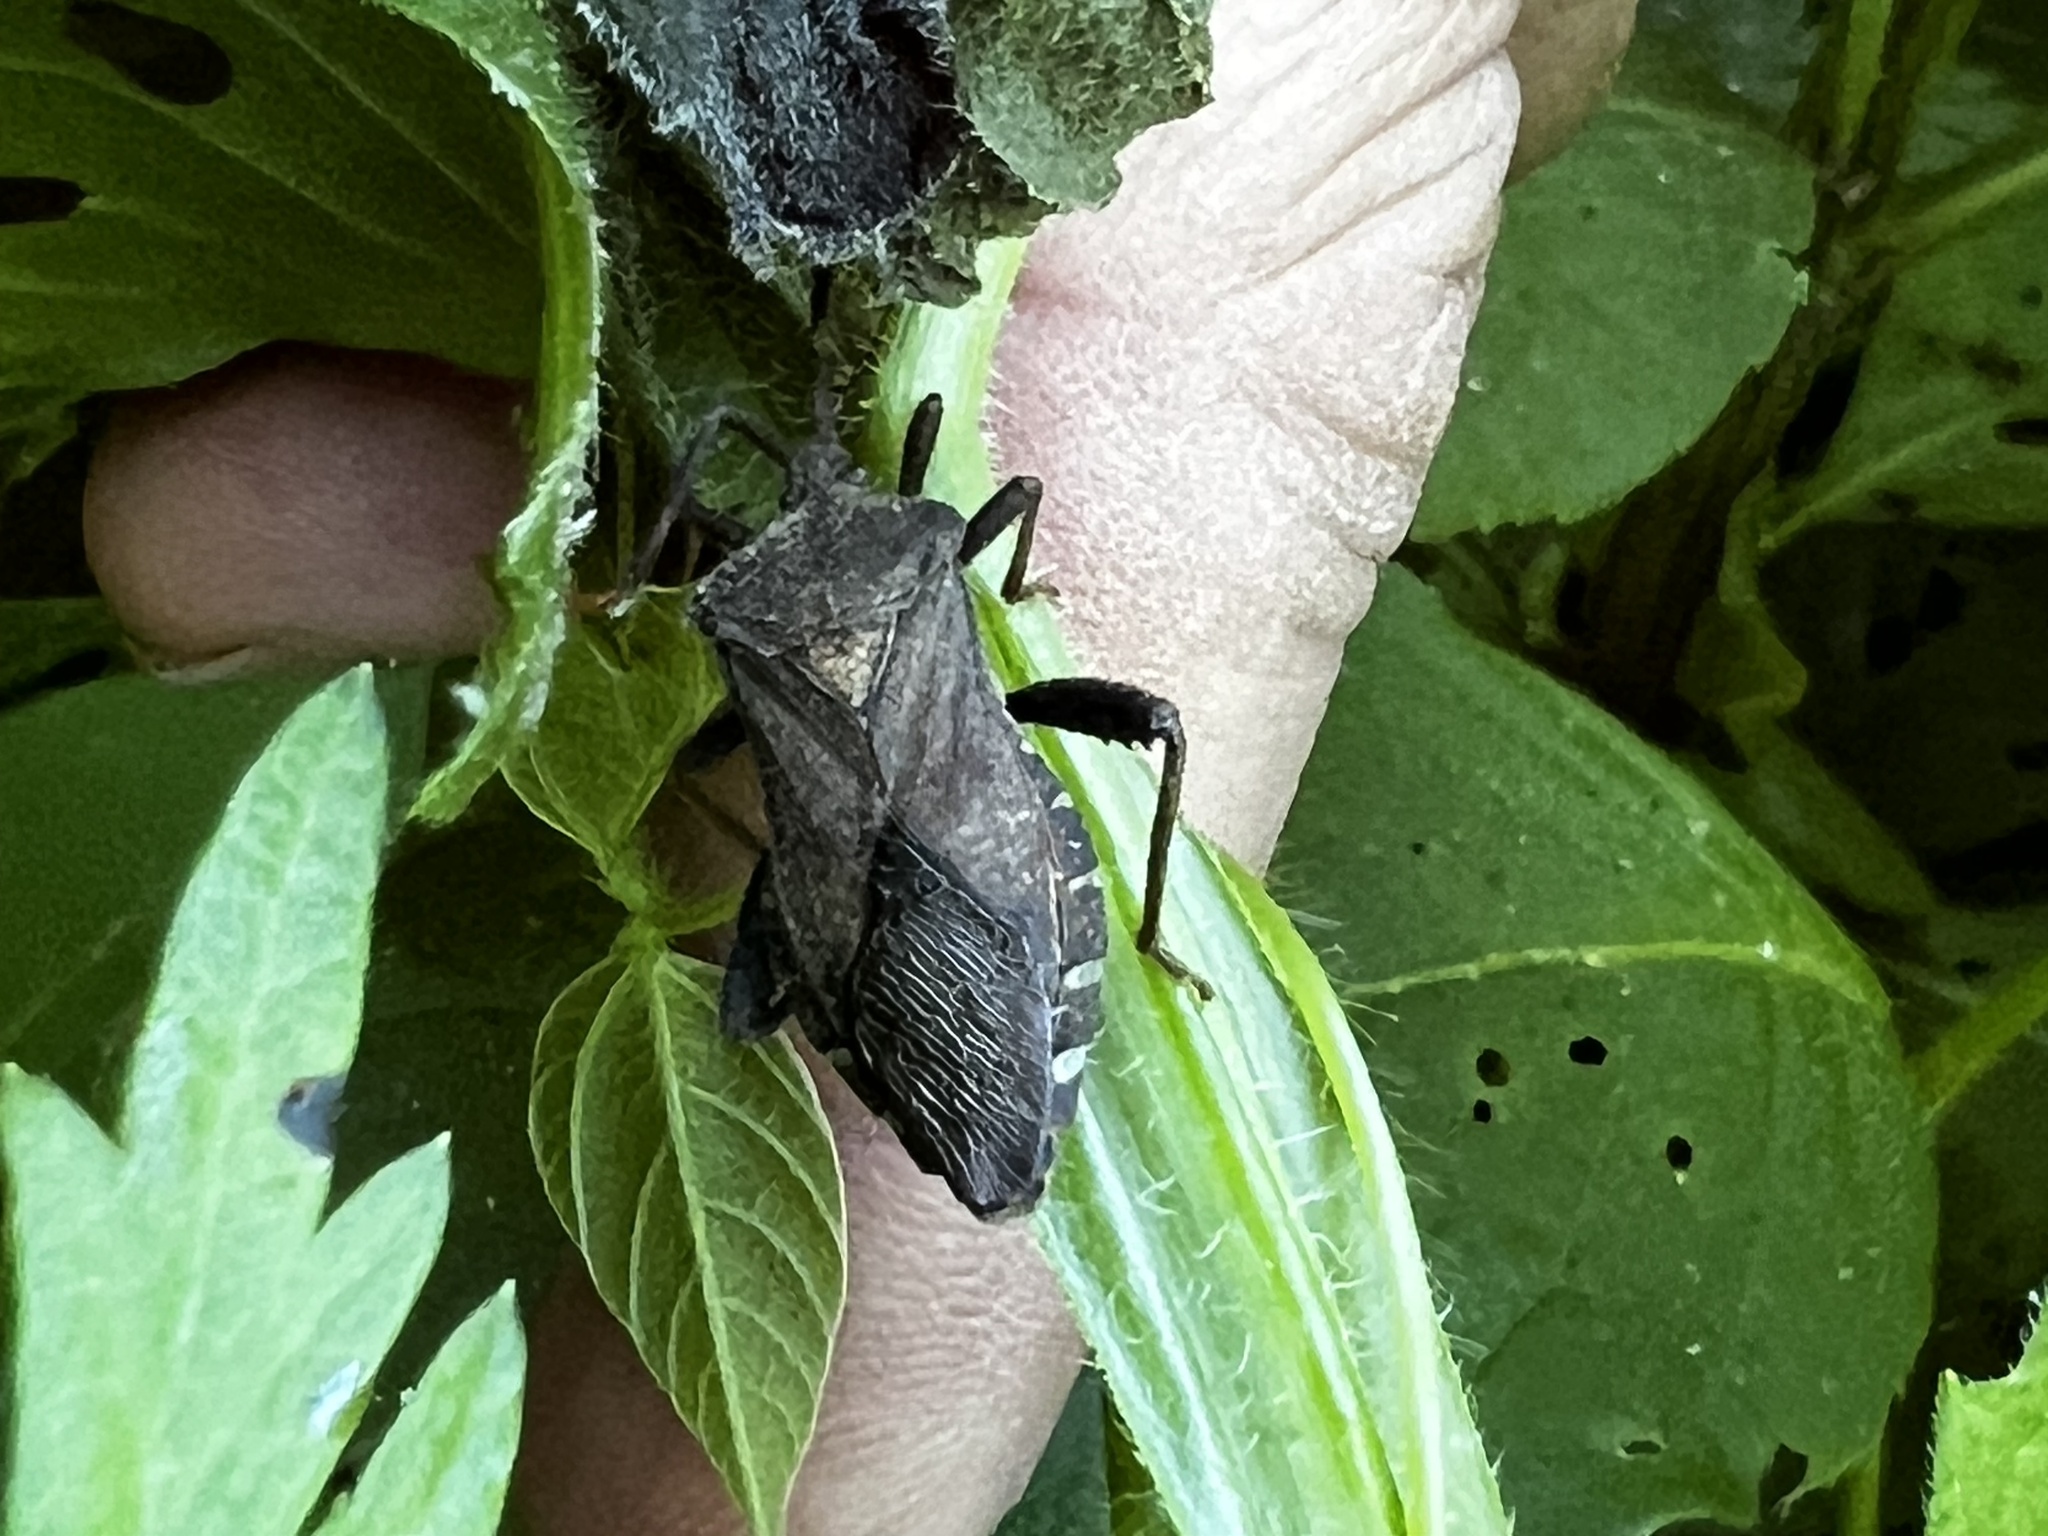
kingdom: Animalia
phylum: Arthropoda
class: Insecta
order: Hemiptera
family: Coreidae
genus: Piezogaster
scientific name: Piezogaster calcarator
